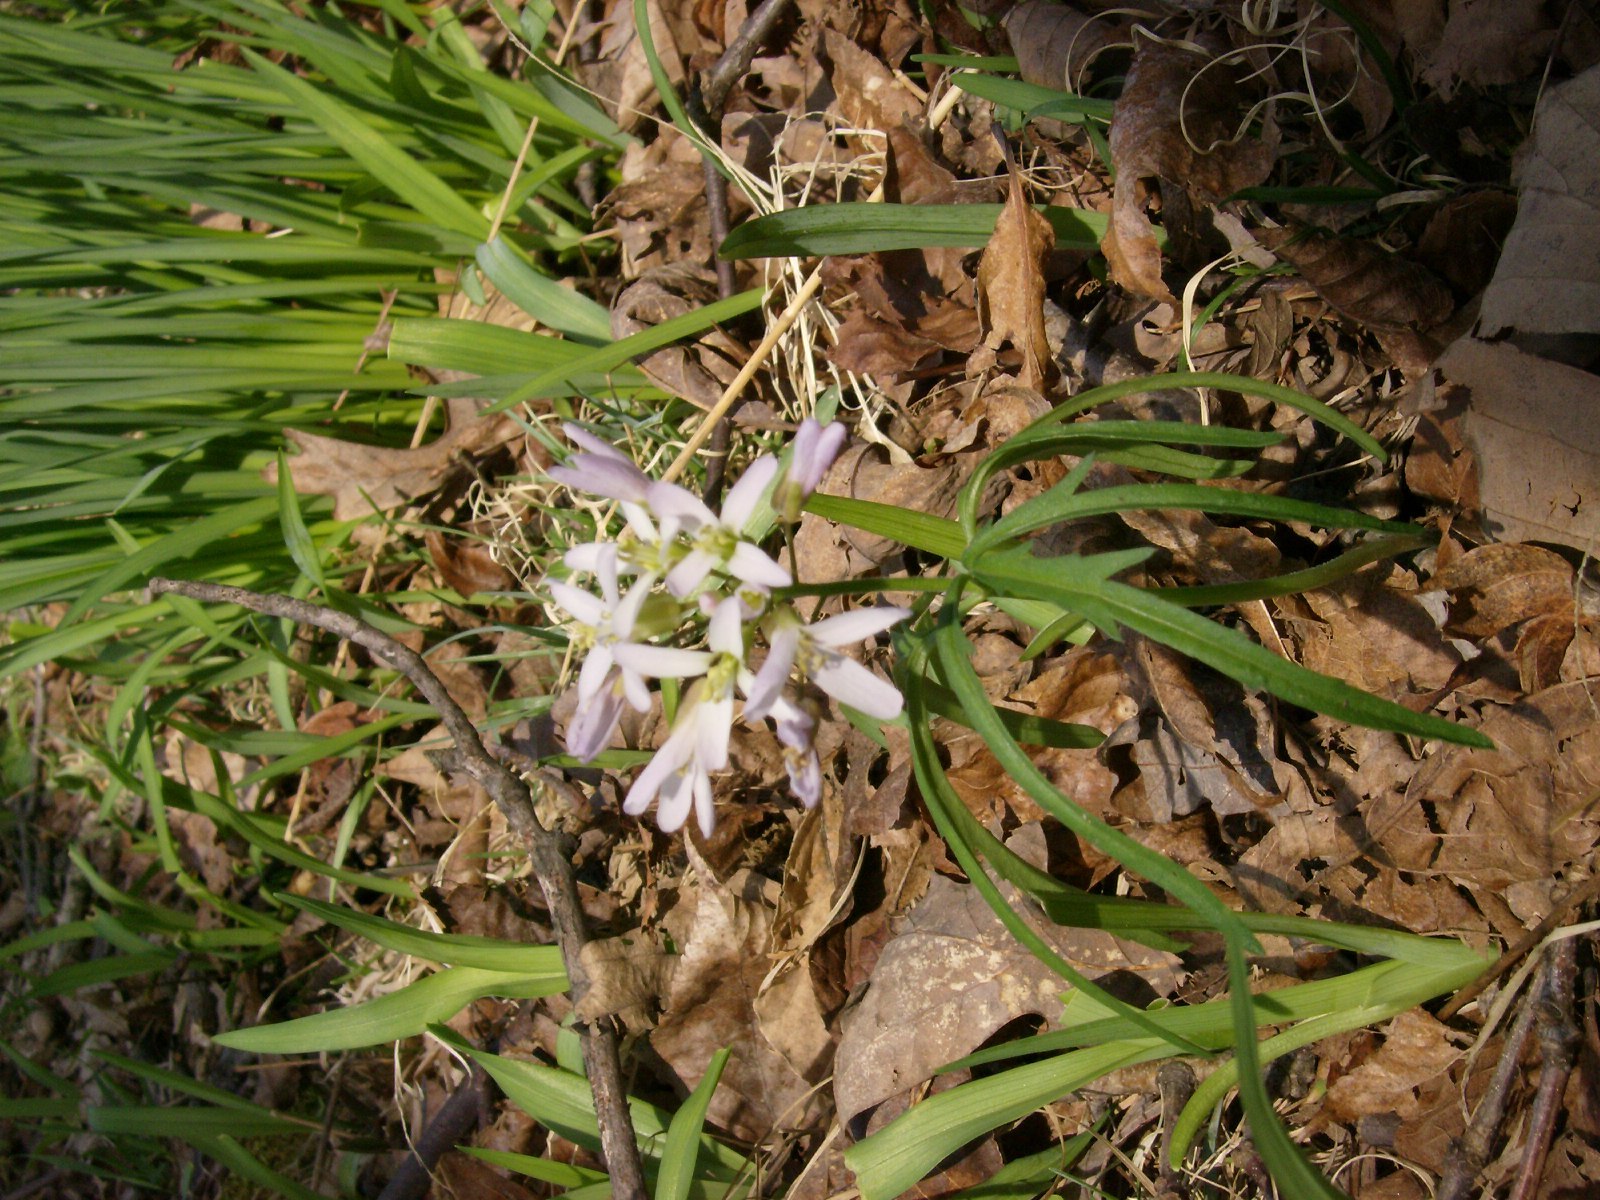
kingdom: Plantae
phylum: Tracheophyta
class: Magnoliopsida
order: Brassicales
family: Brassicaceae
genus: Cardamine
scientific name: Cardamine concatenata
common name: Cut-leaf toothcup
